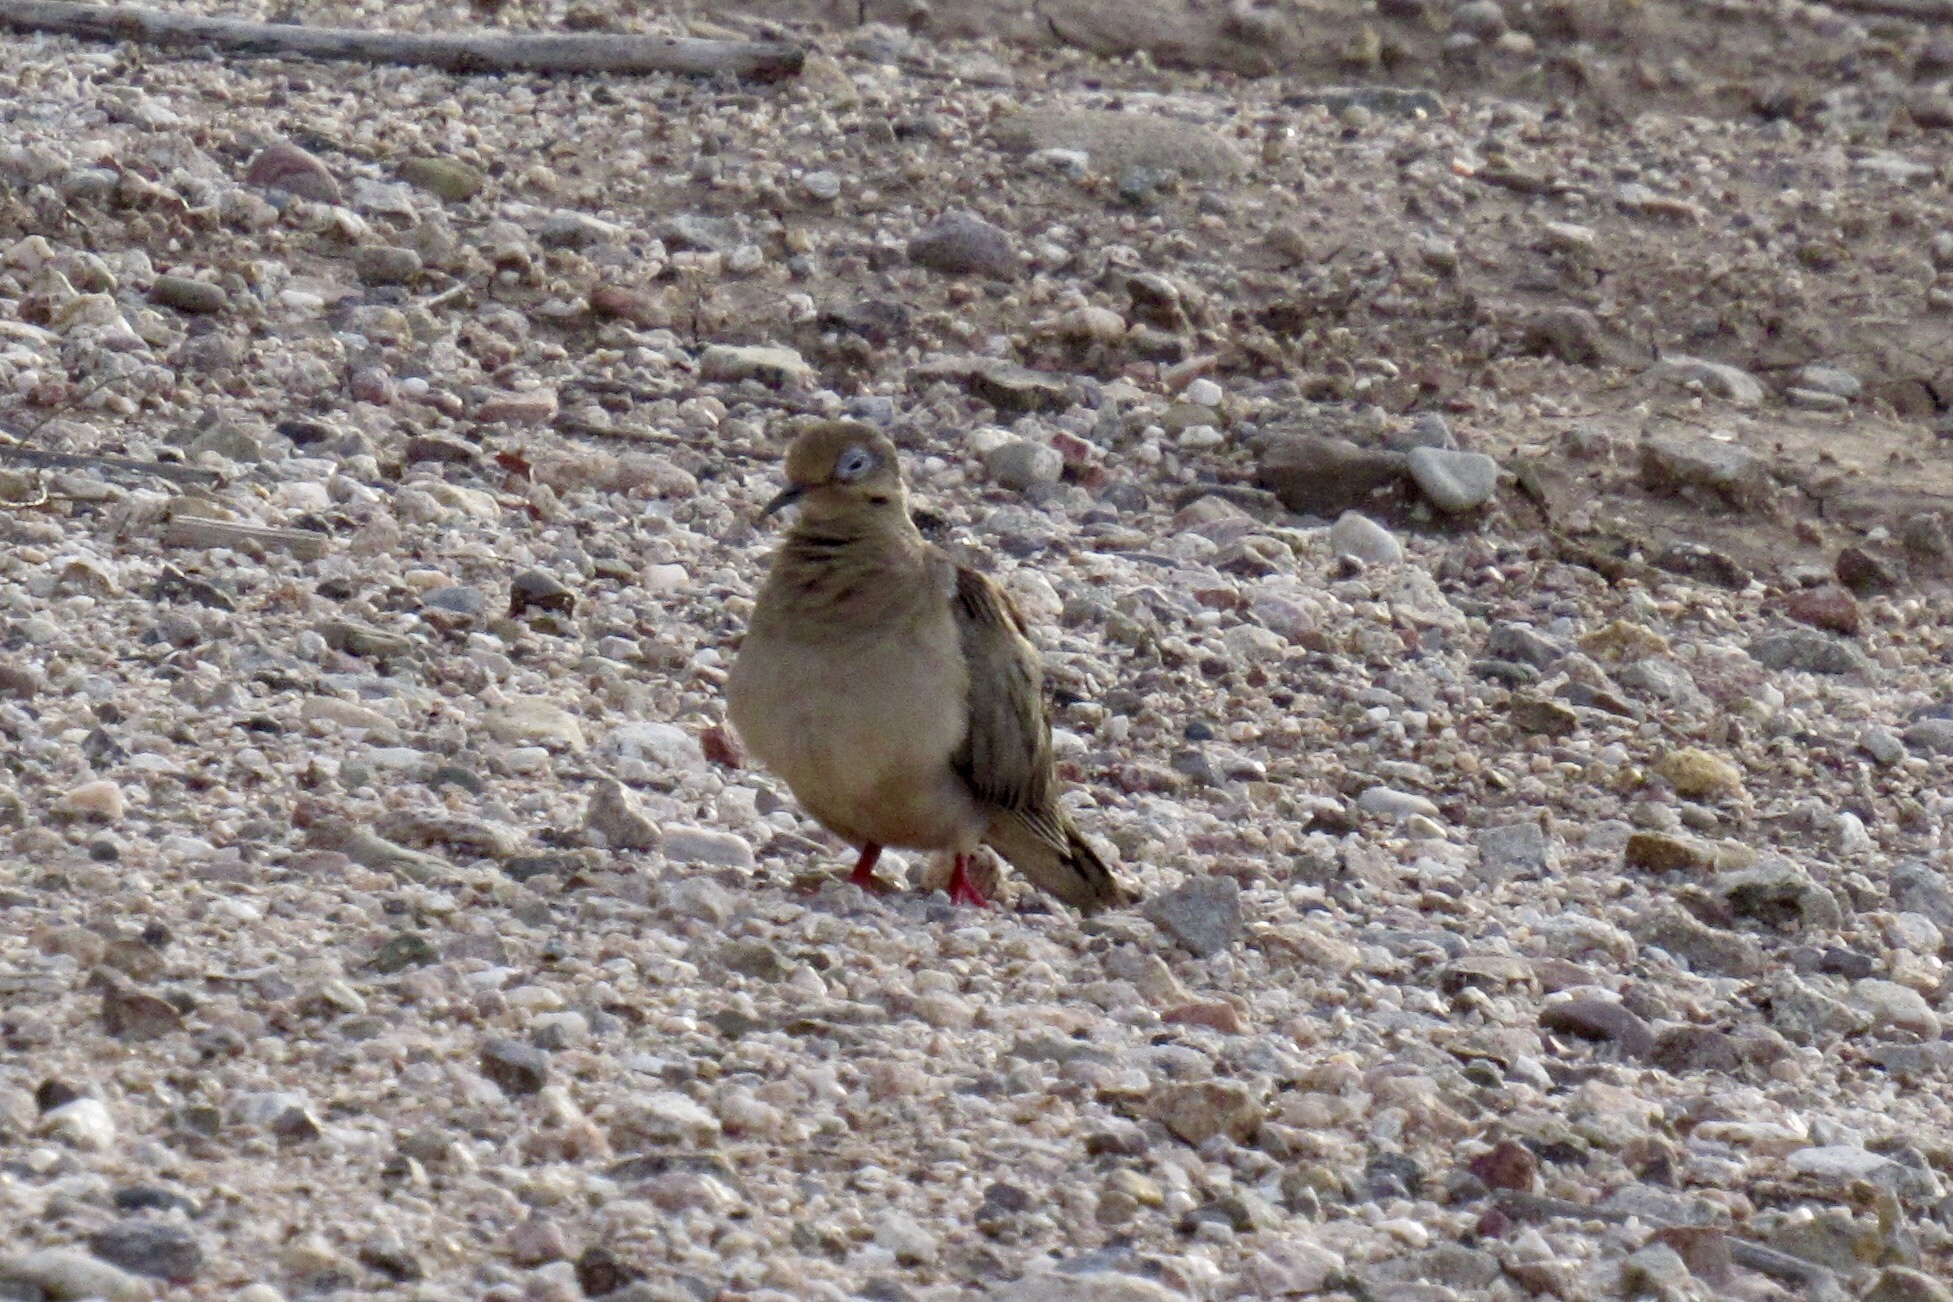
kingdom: Animalia
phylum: Chordata
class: Aves
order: Columbiformes
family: Columbidae
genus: Zenaida
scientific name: Zenaida macroura
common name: Mourning dove
